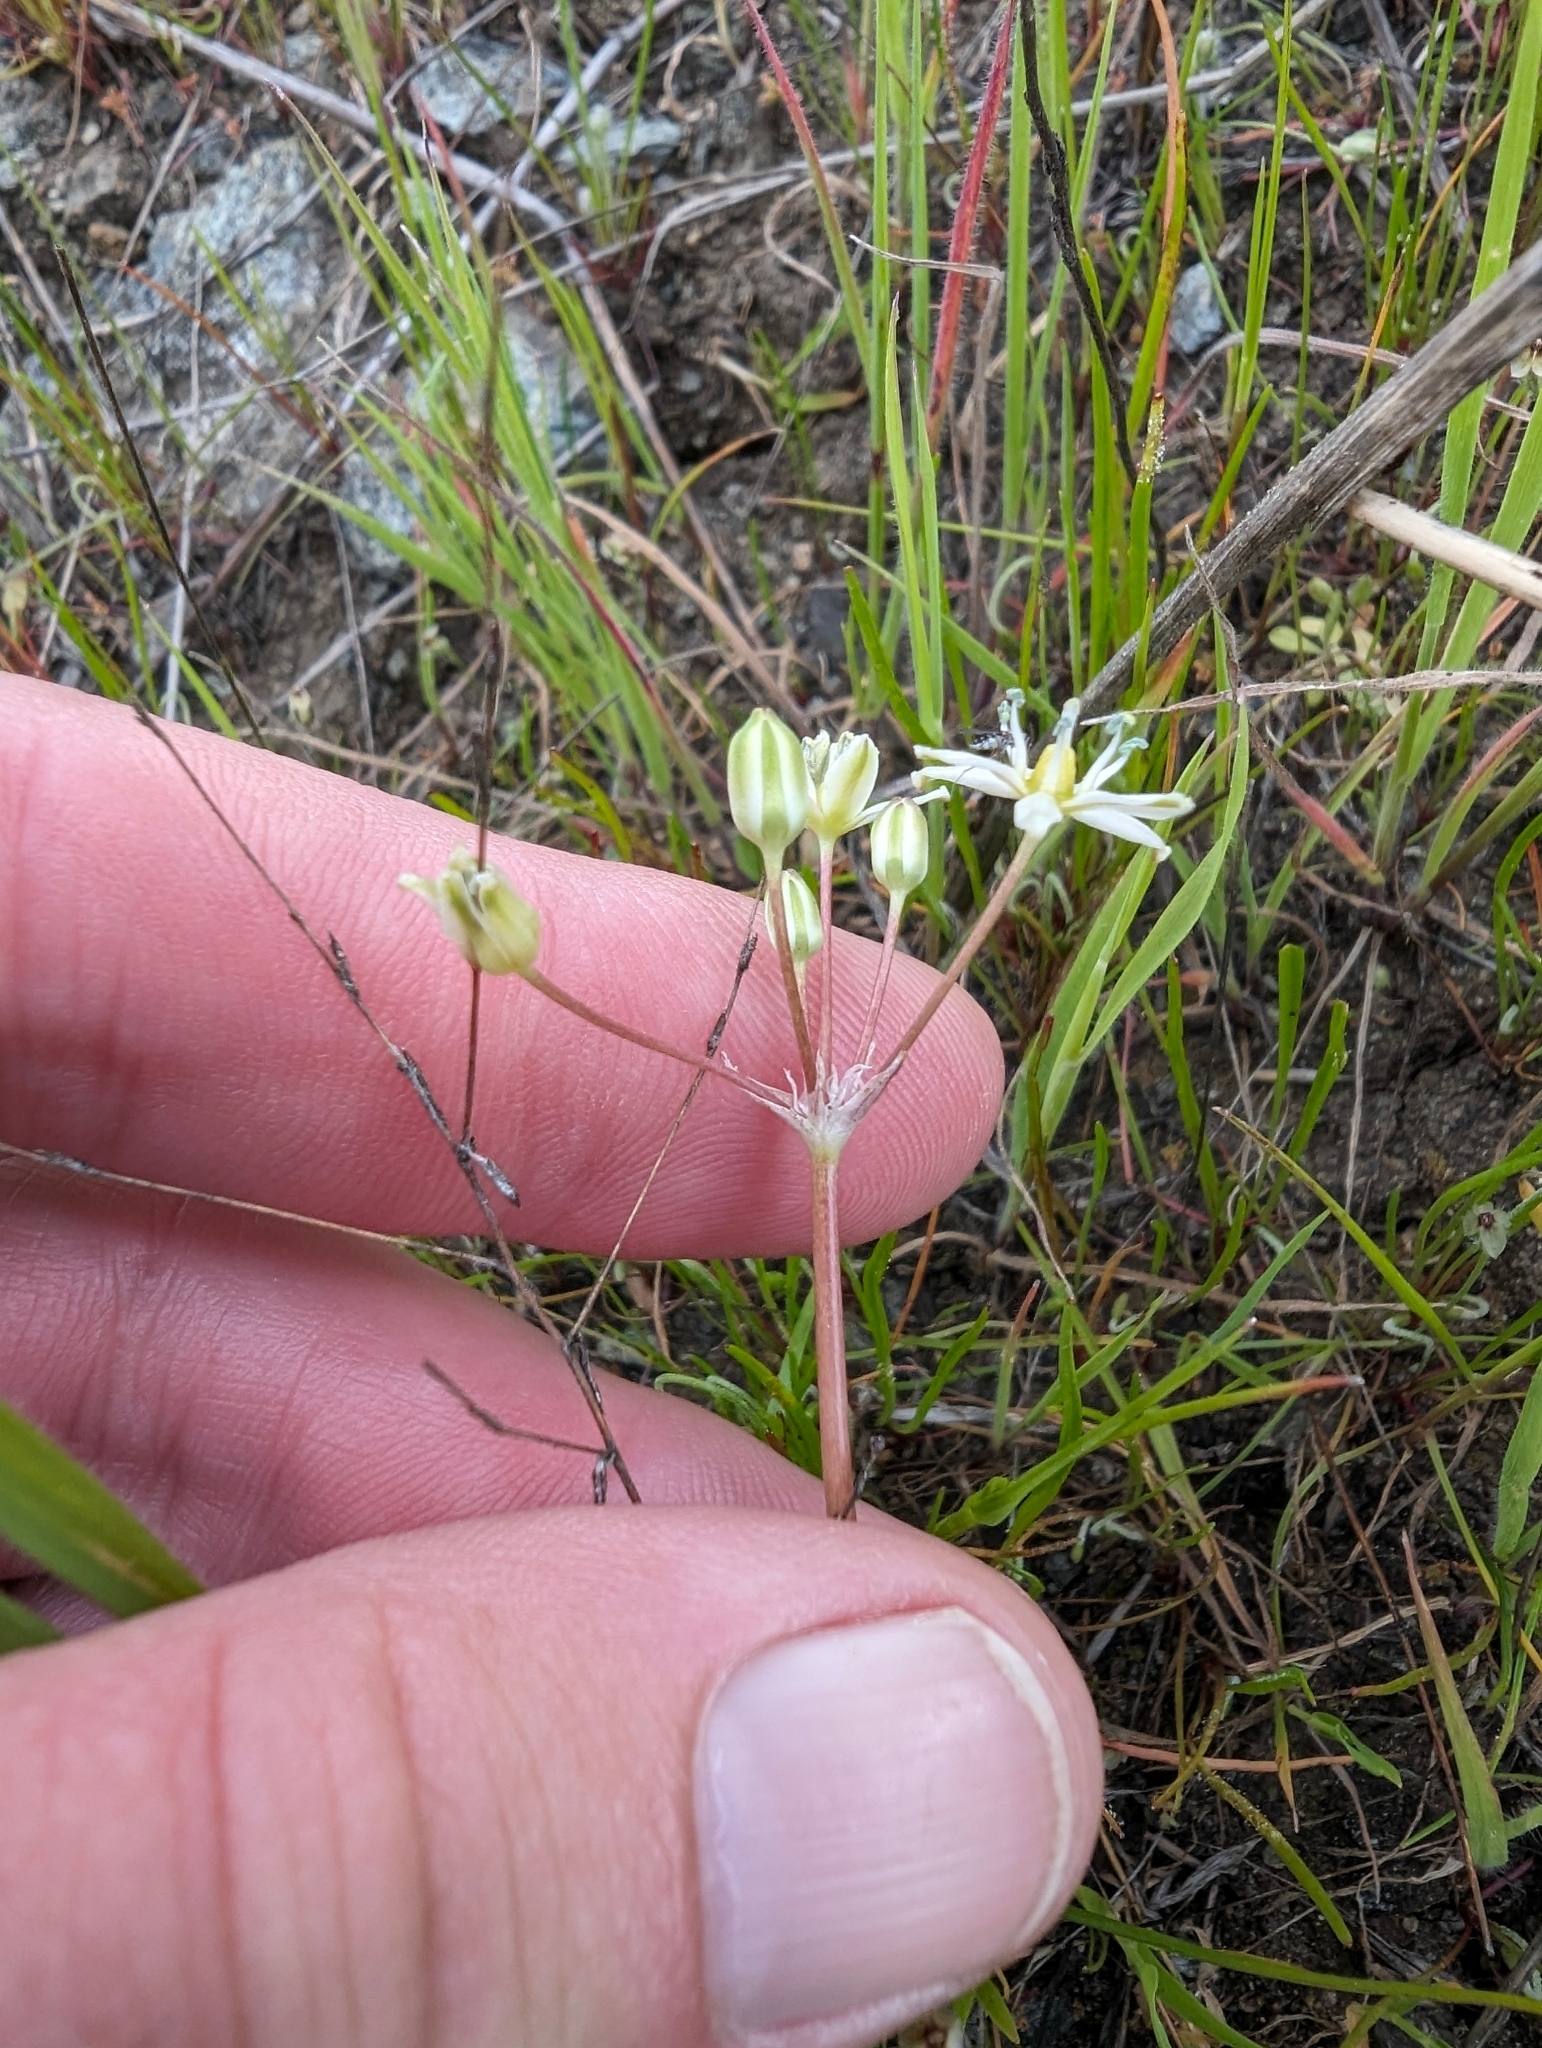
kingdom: Plantae
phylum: Tracheophyta
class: Liliopsida
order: Asparagales
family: Asparagaceae
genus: Muilla
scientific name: Muilla maritima
